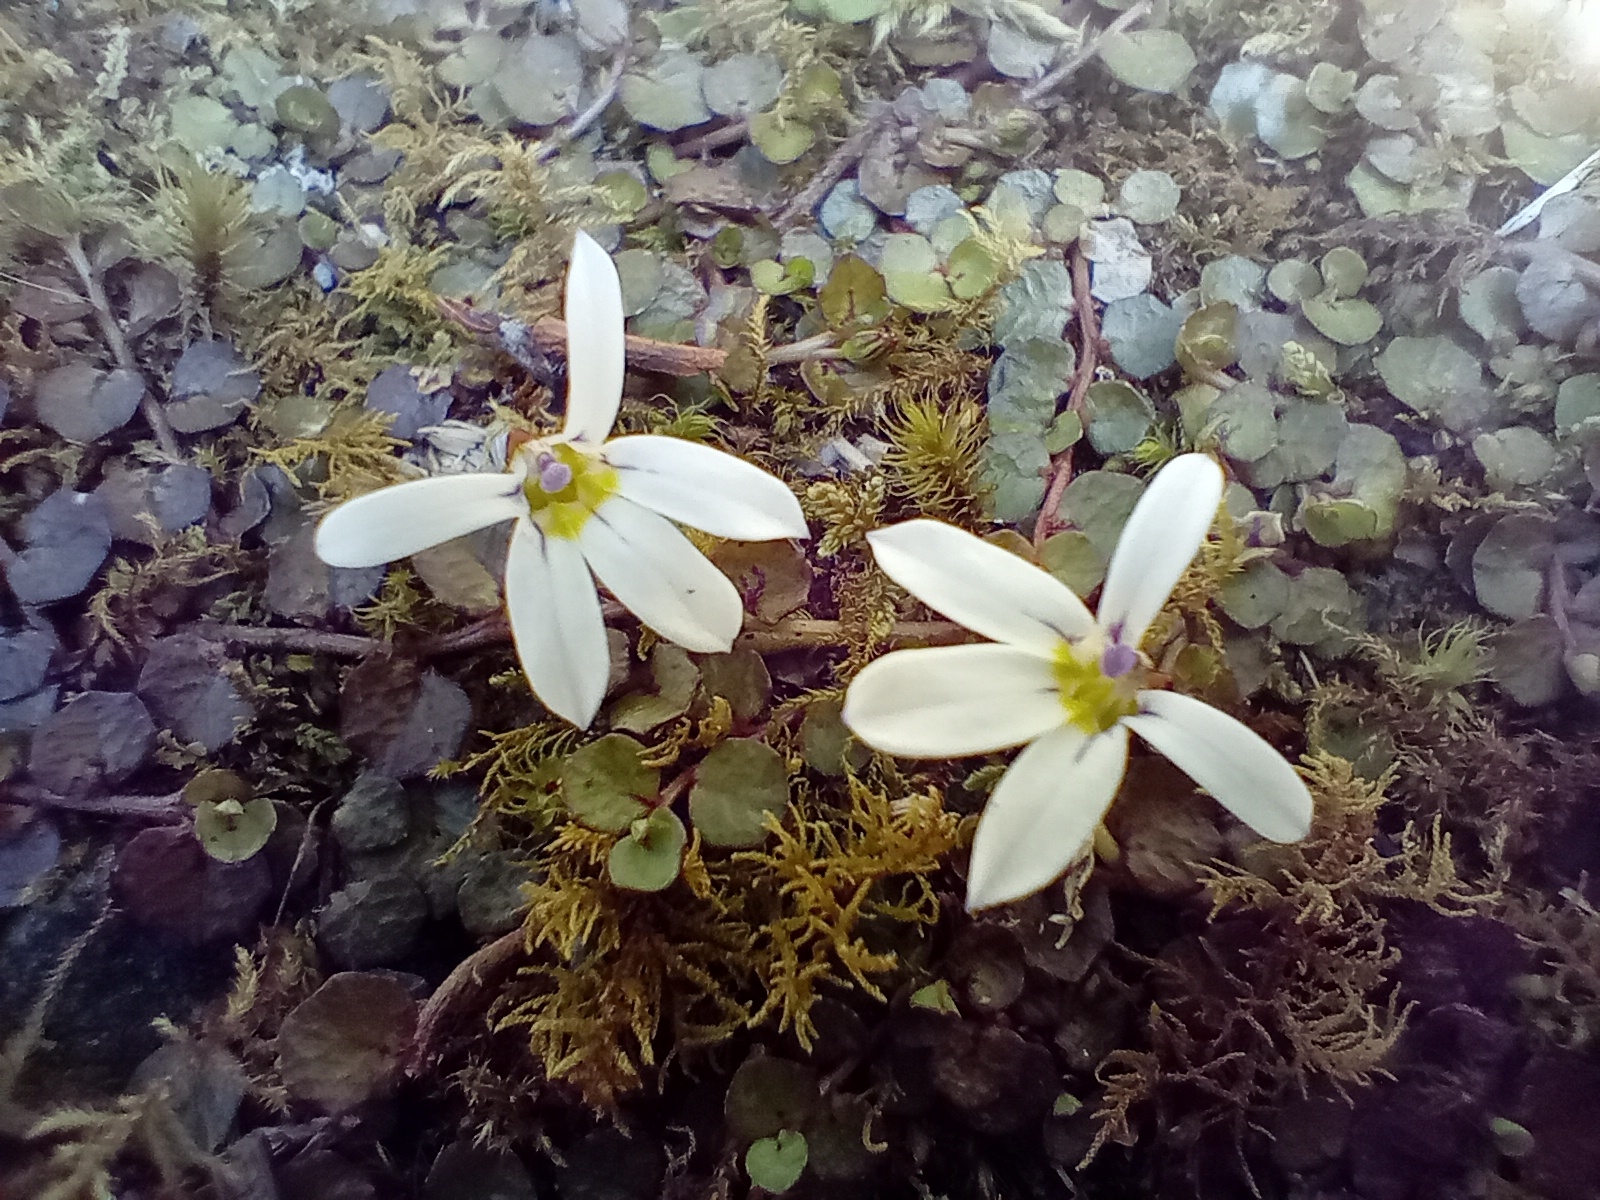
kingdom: Plantae
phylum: Tracheophyta
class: Magnoliopsida
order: Asterales
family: Campanulaceae
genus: Lobelia
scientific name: Lobelia angulata
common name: Lawn lobelia
